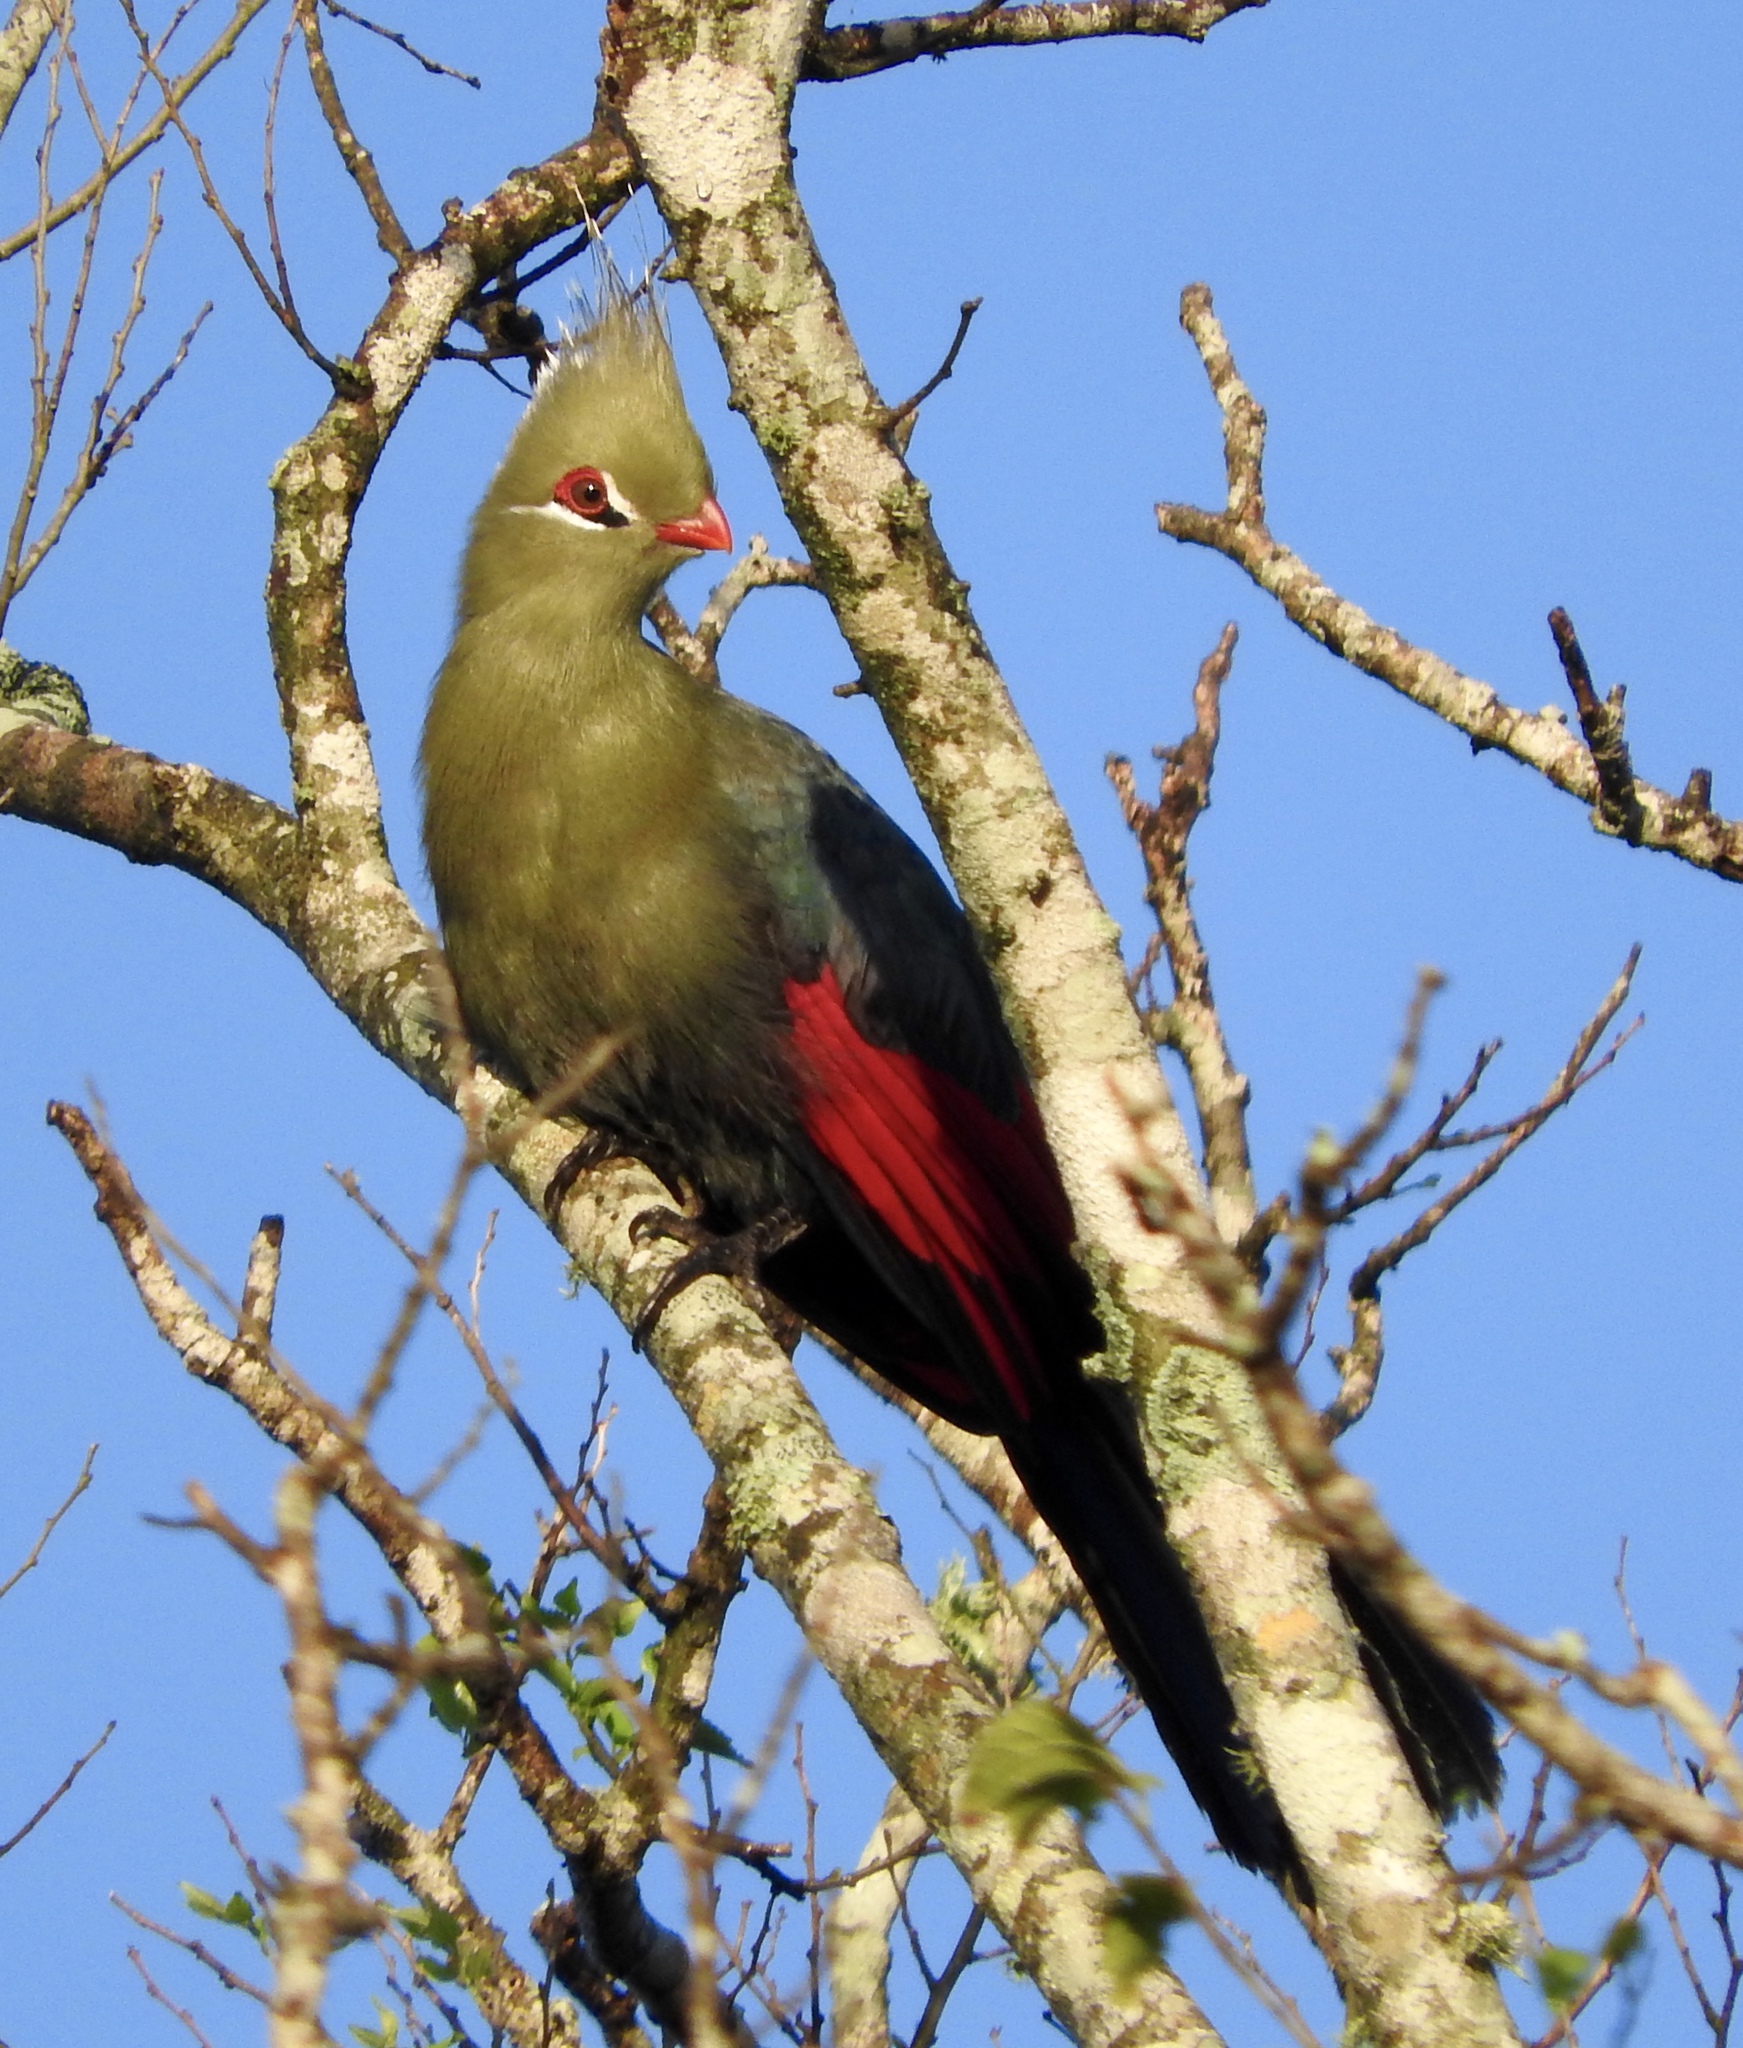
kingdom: Animalia
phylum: Chordata
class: Aves
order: Musophagiformes
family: Musophagidae
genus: Tauraco
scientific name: Tauraco livingstonii
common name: Livingstone's turaco
